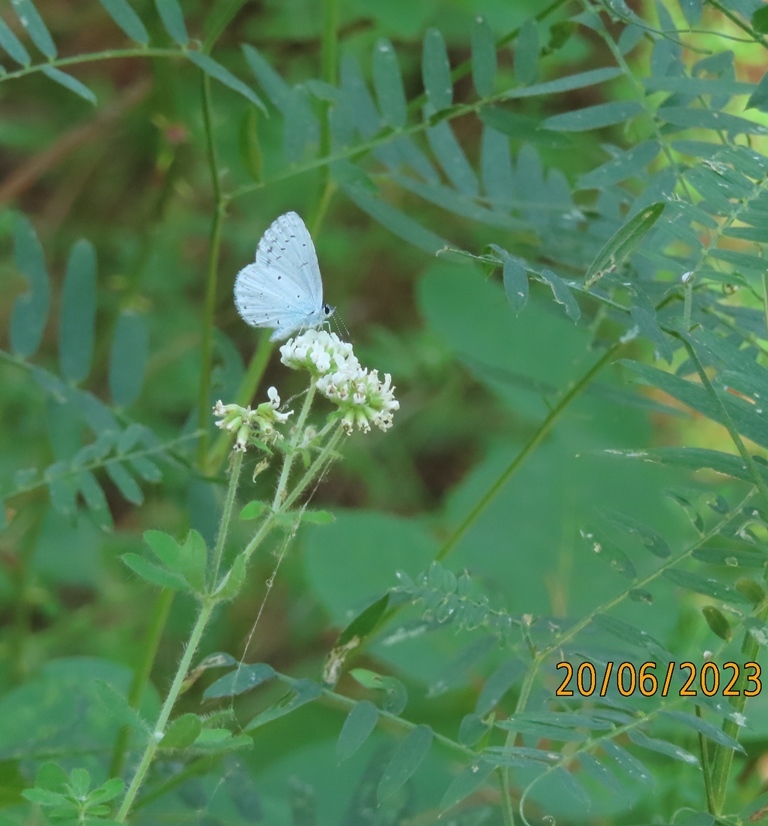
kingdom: Animalia
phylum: Arthropoda
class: Insecta
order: Lepidoptera
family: Lycaenidae
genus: Celastrina
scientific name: Celastrina argiolus
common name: Holly blue
